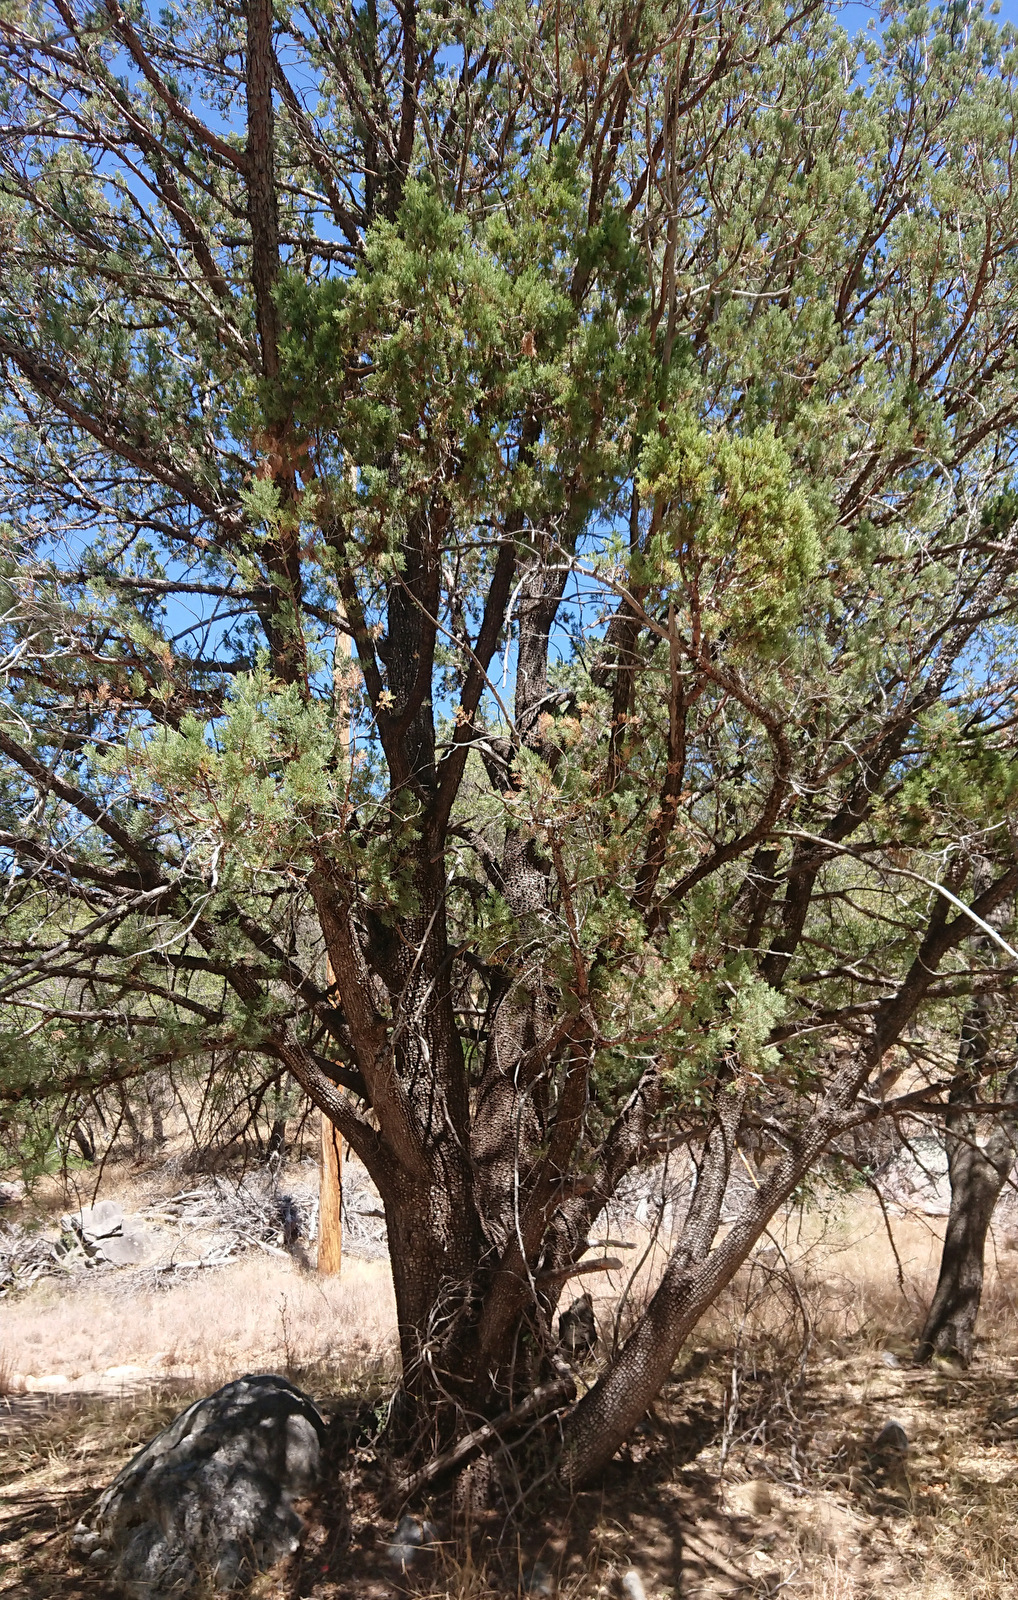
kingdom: Plantae
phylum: Tracheophyta
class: Pinopsida
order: Pinales
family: Cupressaceae
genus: Juniperus
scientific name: Juniperus deppeana
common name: Alligator juniper
